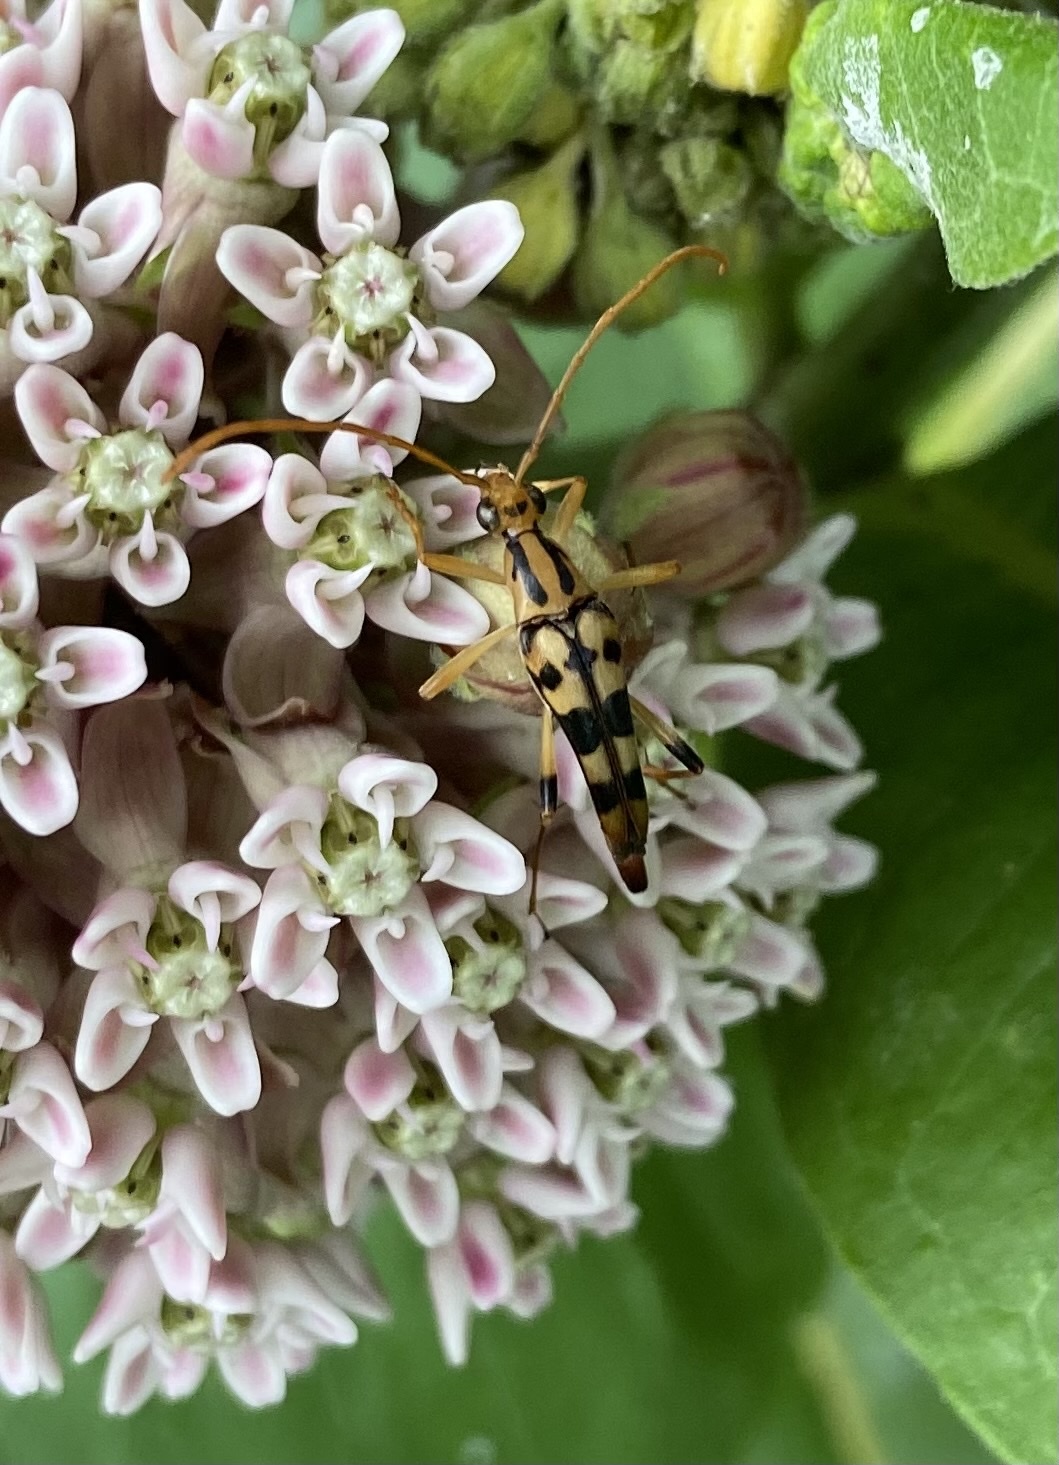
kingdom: Animalia
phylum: Arthropoda
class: Insecta
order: Coleoptera
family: Cerambycidae
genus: Strangalia
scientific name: Strangalia luteicornis
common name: Yellow-horned flower longhorn beetle
